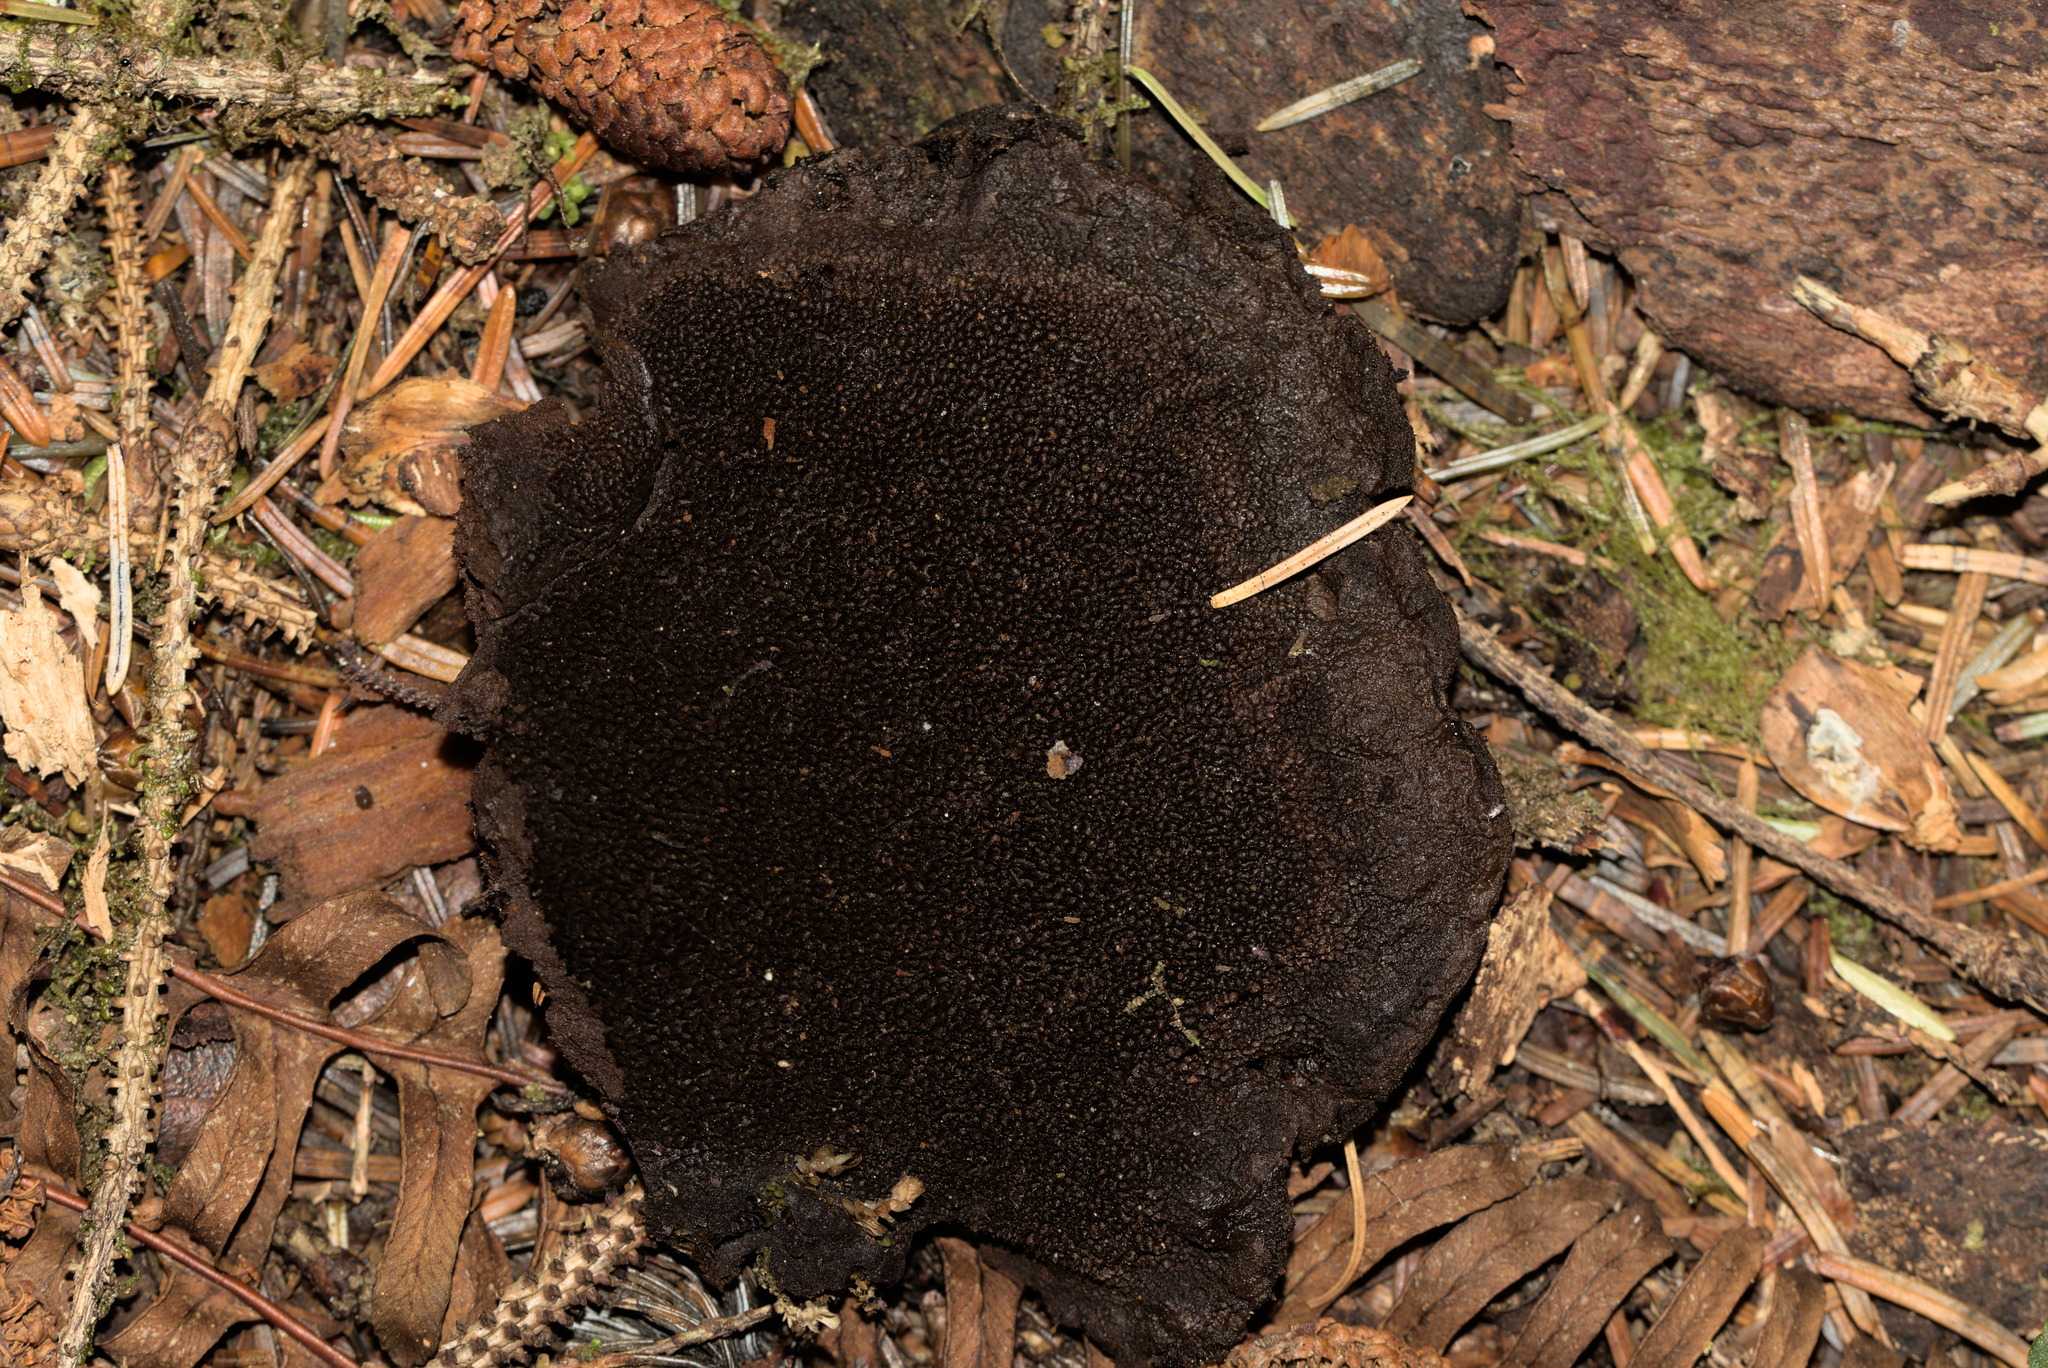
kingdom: Fungi
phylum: Basidiomycota
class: Agaricomycetes
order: Polyporales
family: Laetiporaceae
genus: Phaeolus
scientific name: Phaeolus schweinitzii
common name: Dyer's mazegill
